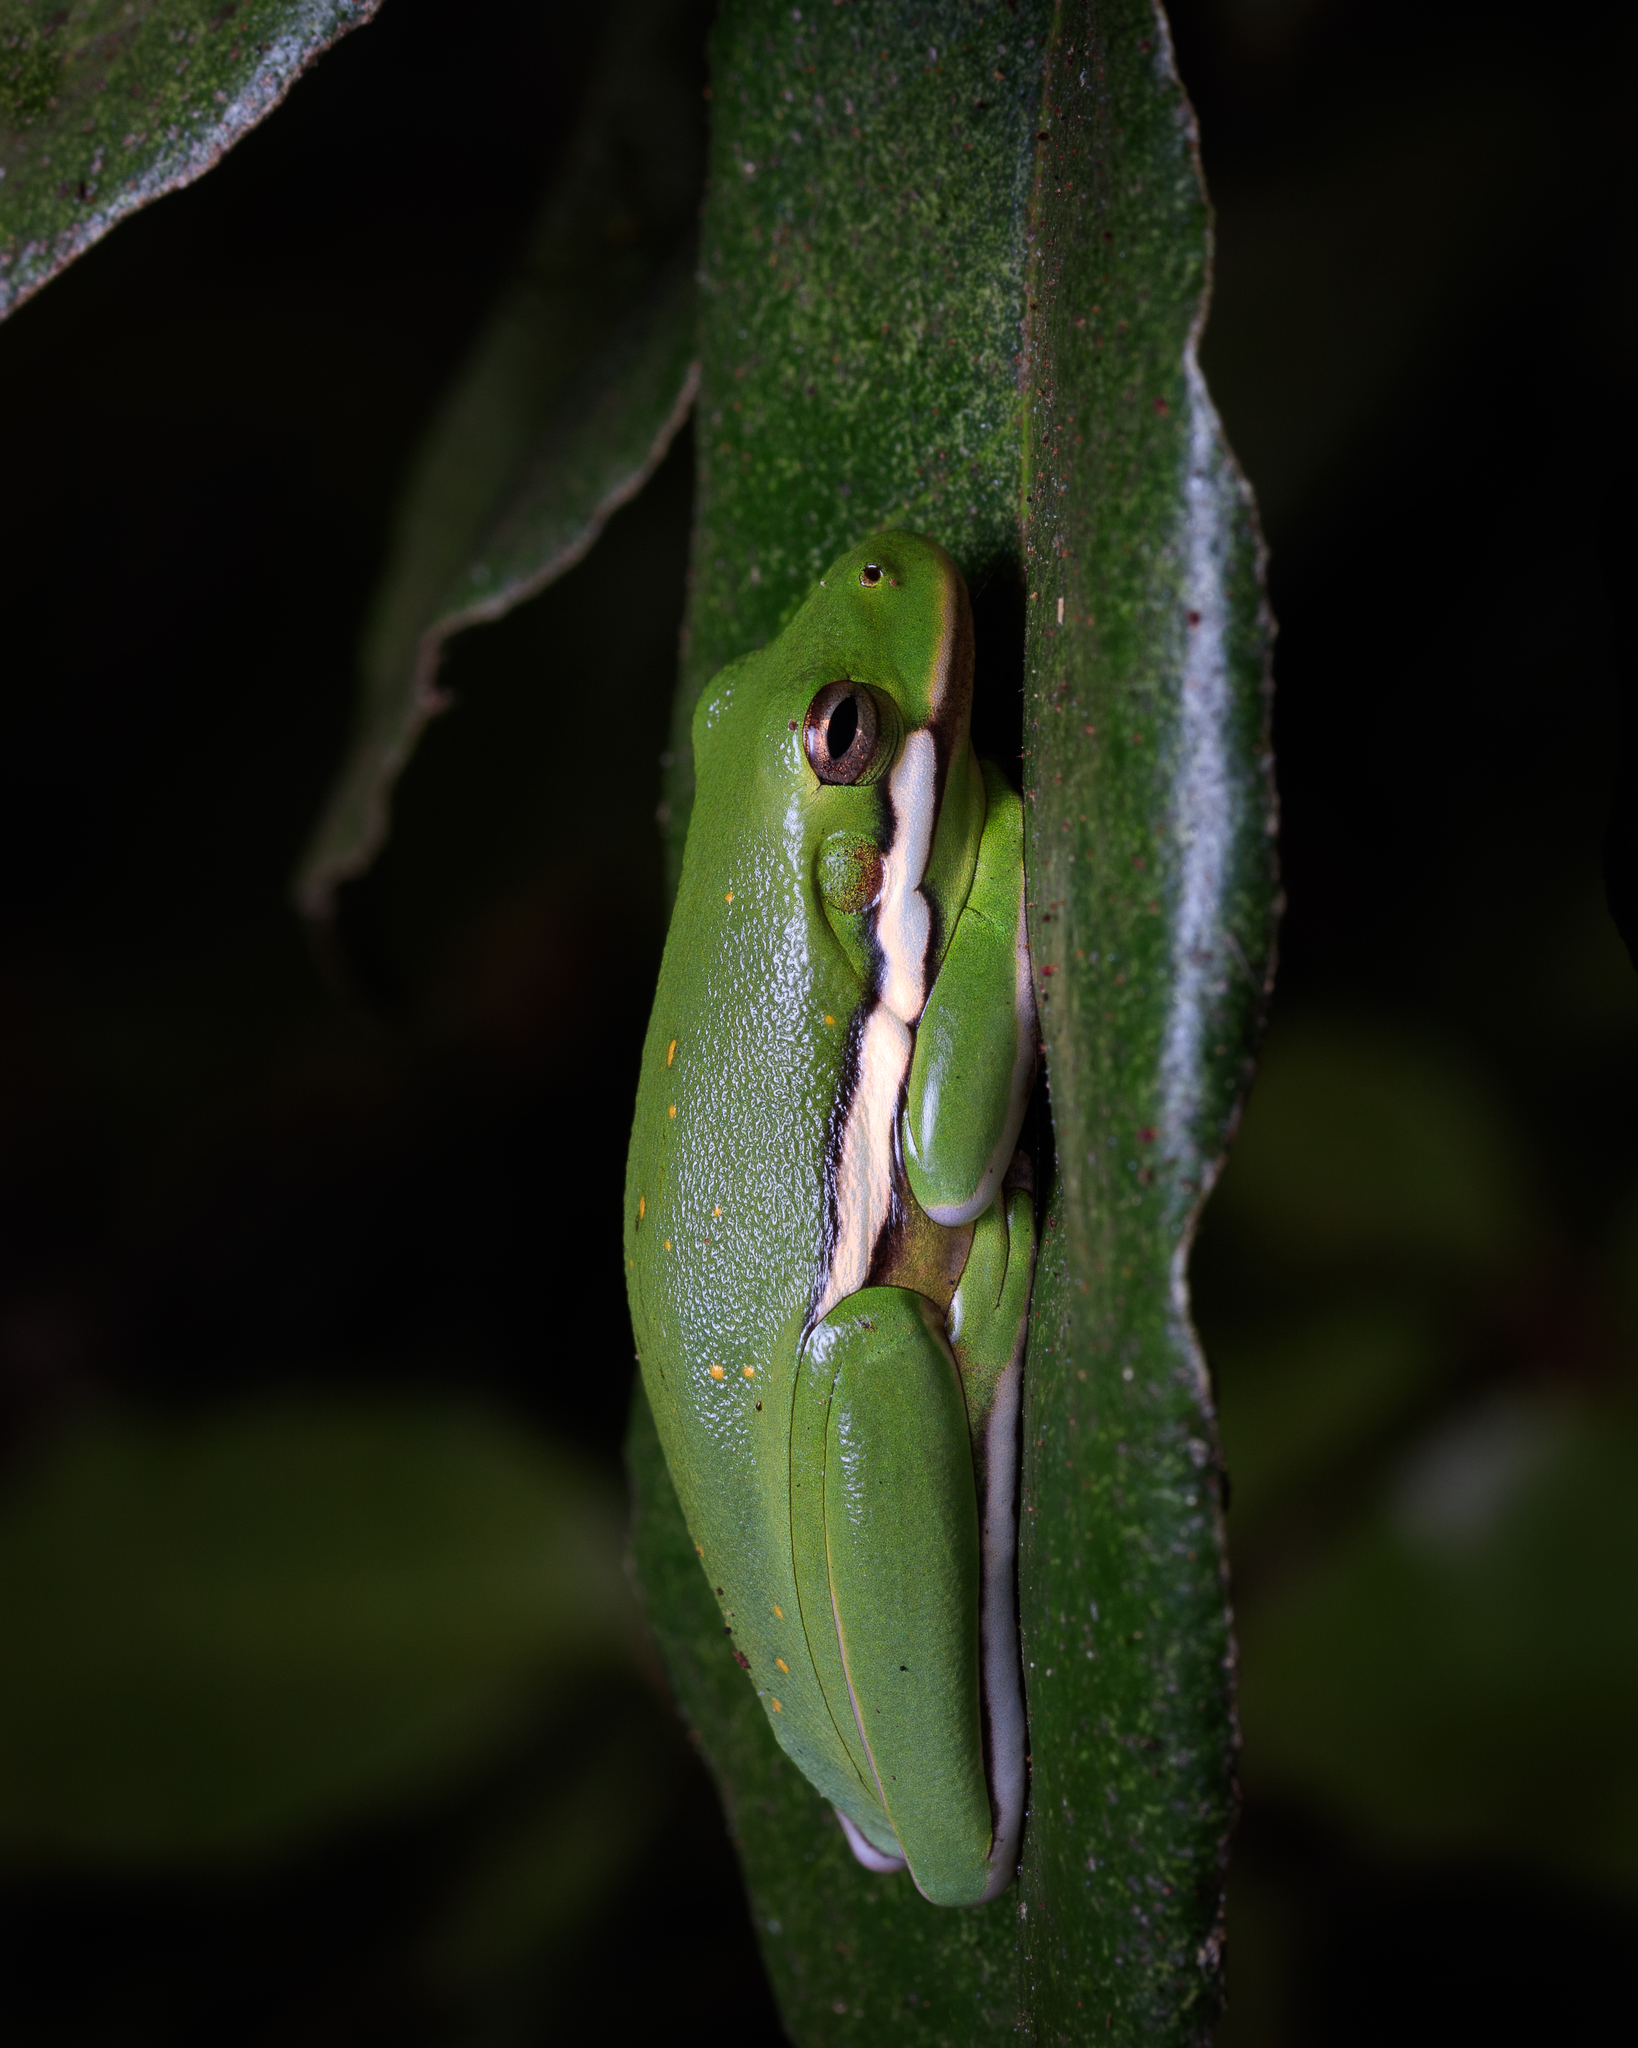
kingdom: Animalia
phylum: Chordata
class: Amphibia
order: Anura
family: Hylidae
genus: Dryophytes
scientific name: Dryophytes cinereus
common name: Green treefrog
